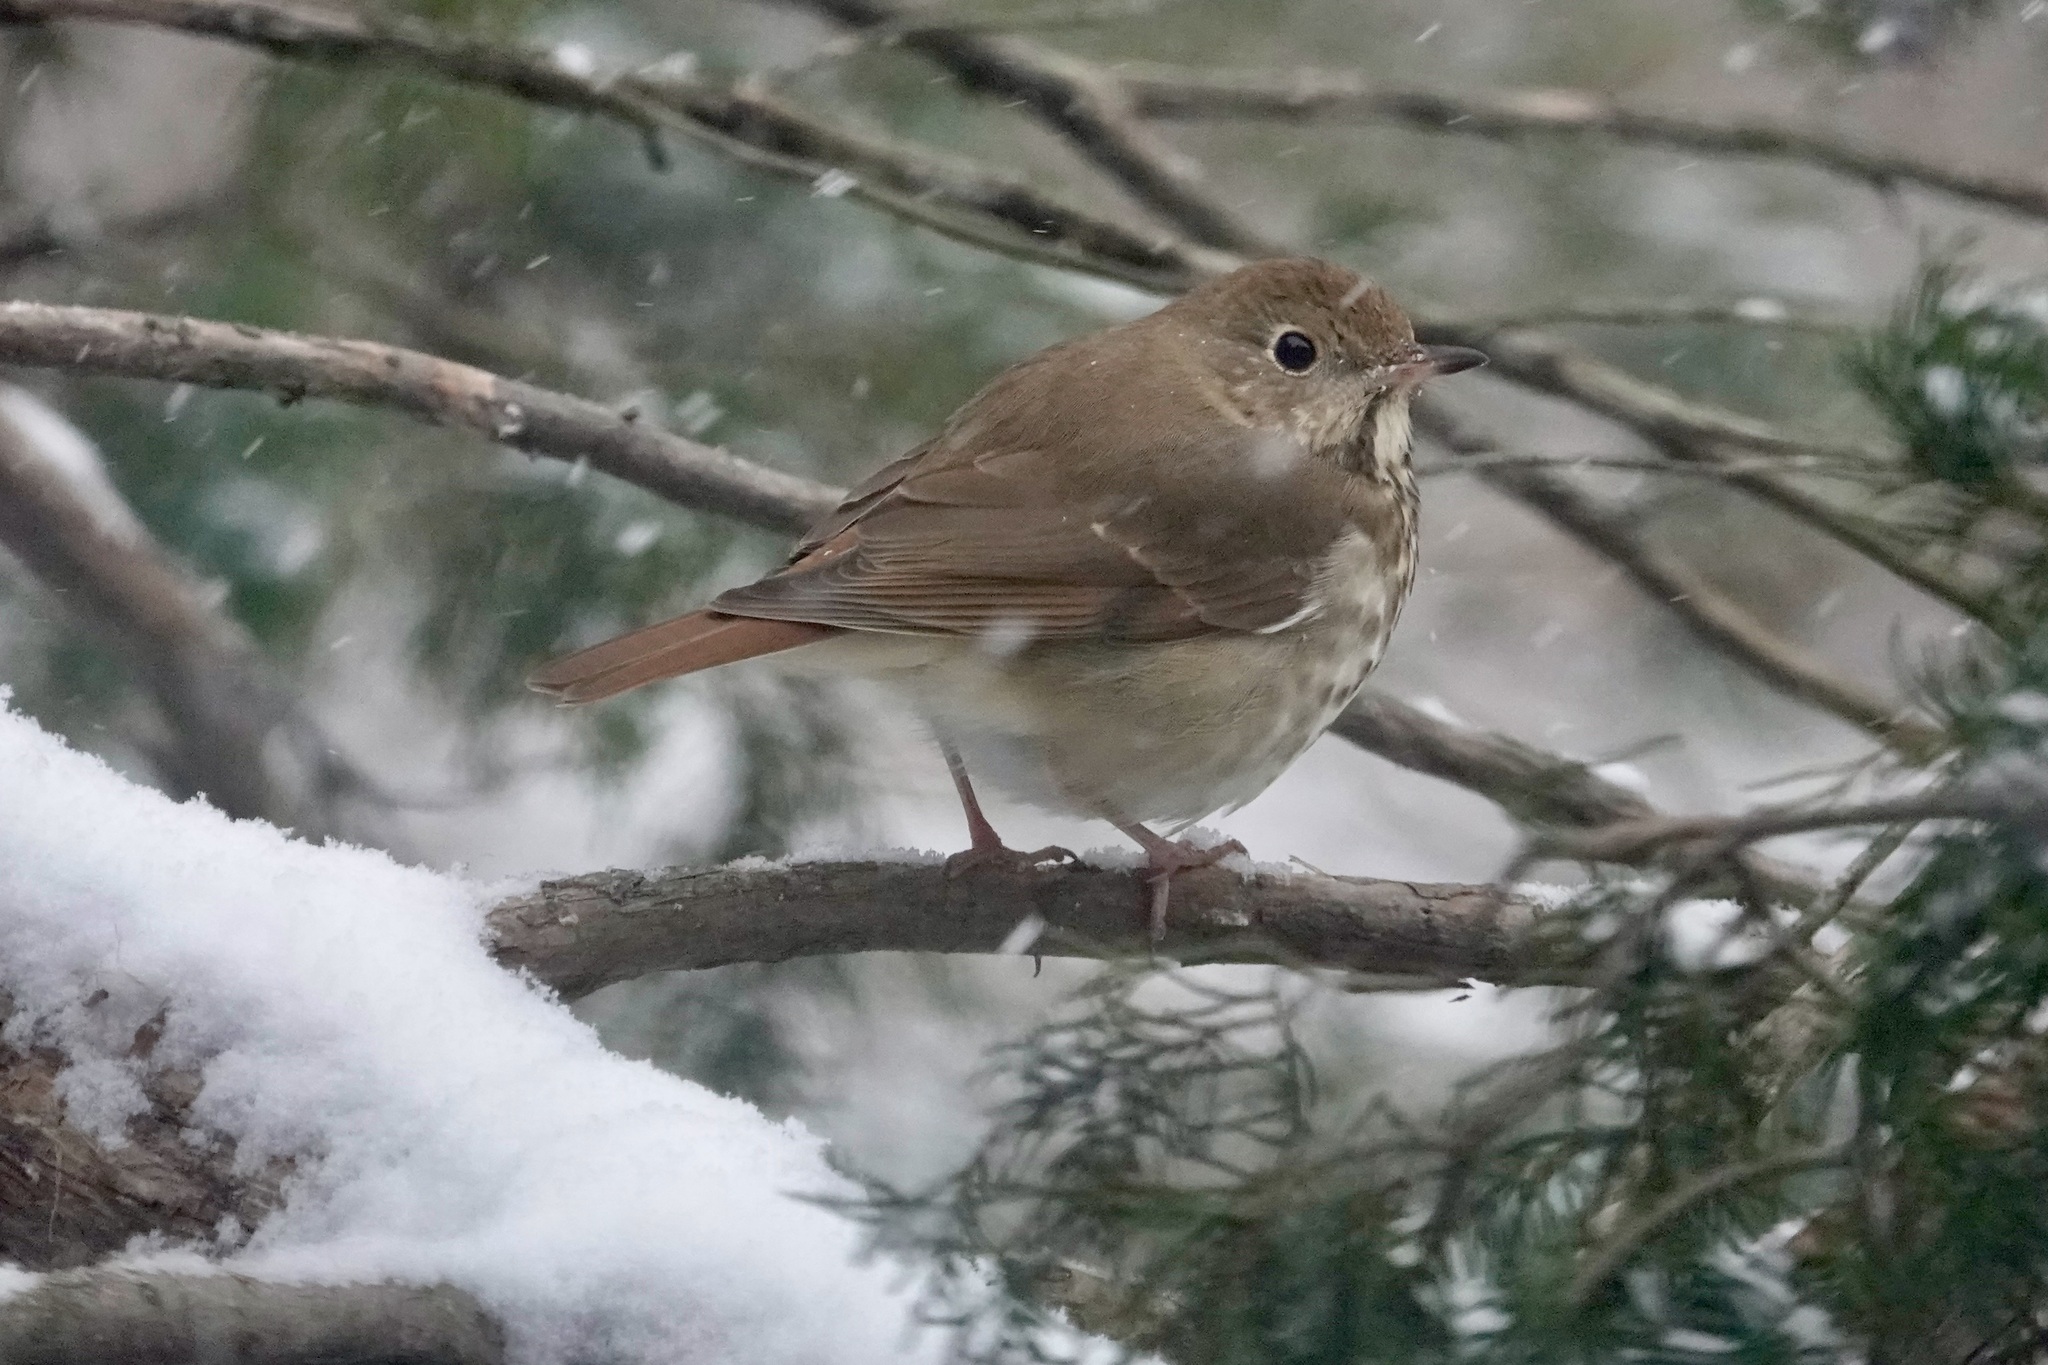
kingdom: Animalia
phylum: Chordata
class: Aves
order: Passeriformes
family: Turdidae
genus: Catharus
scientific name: Catharus guttatus
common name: Hermit thrush
